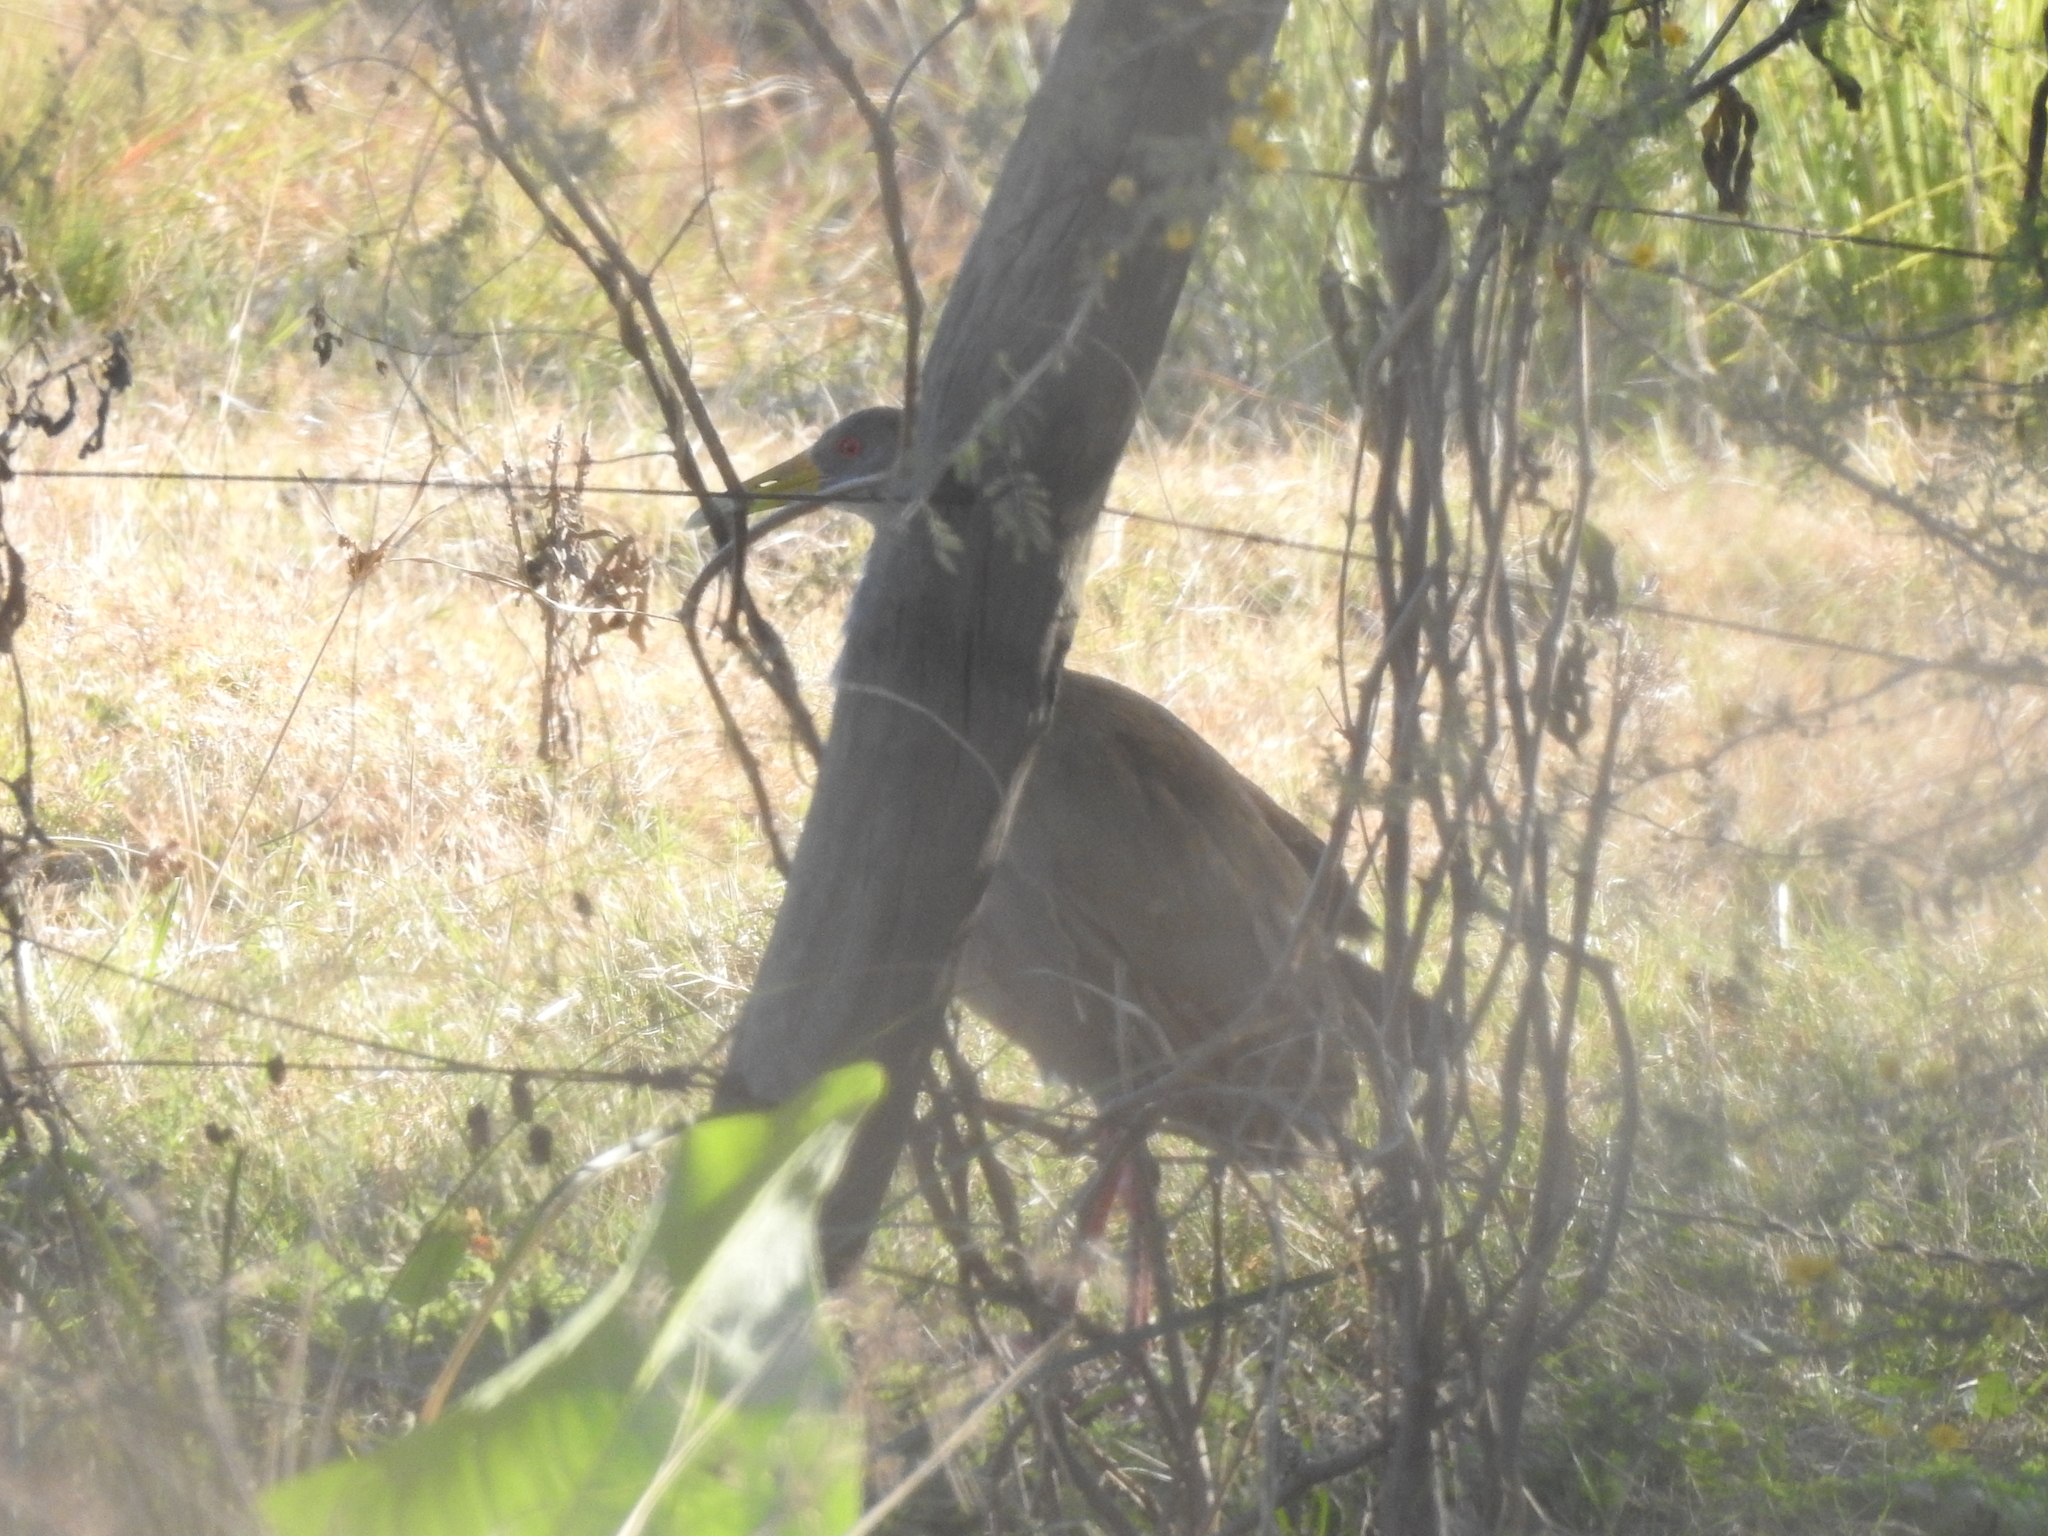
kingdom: Animalia
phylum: Chordata
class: Aves
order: Gruiformes
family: Rallidae
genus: Aramides
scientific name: Aramides ypecaha
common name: Giant wood rail
